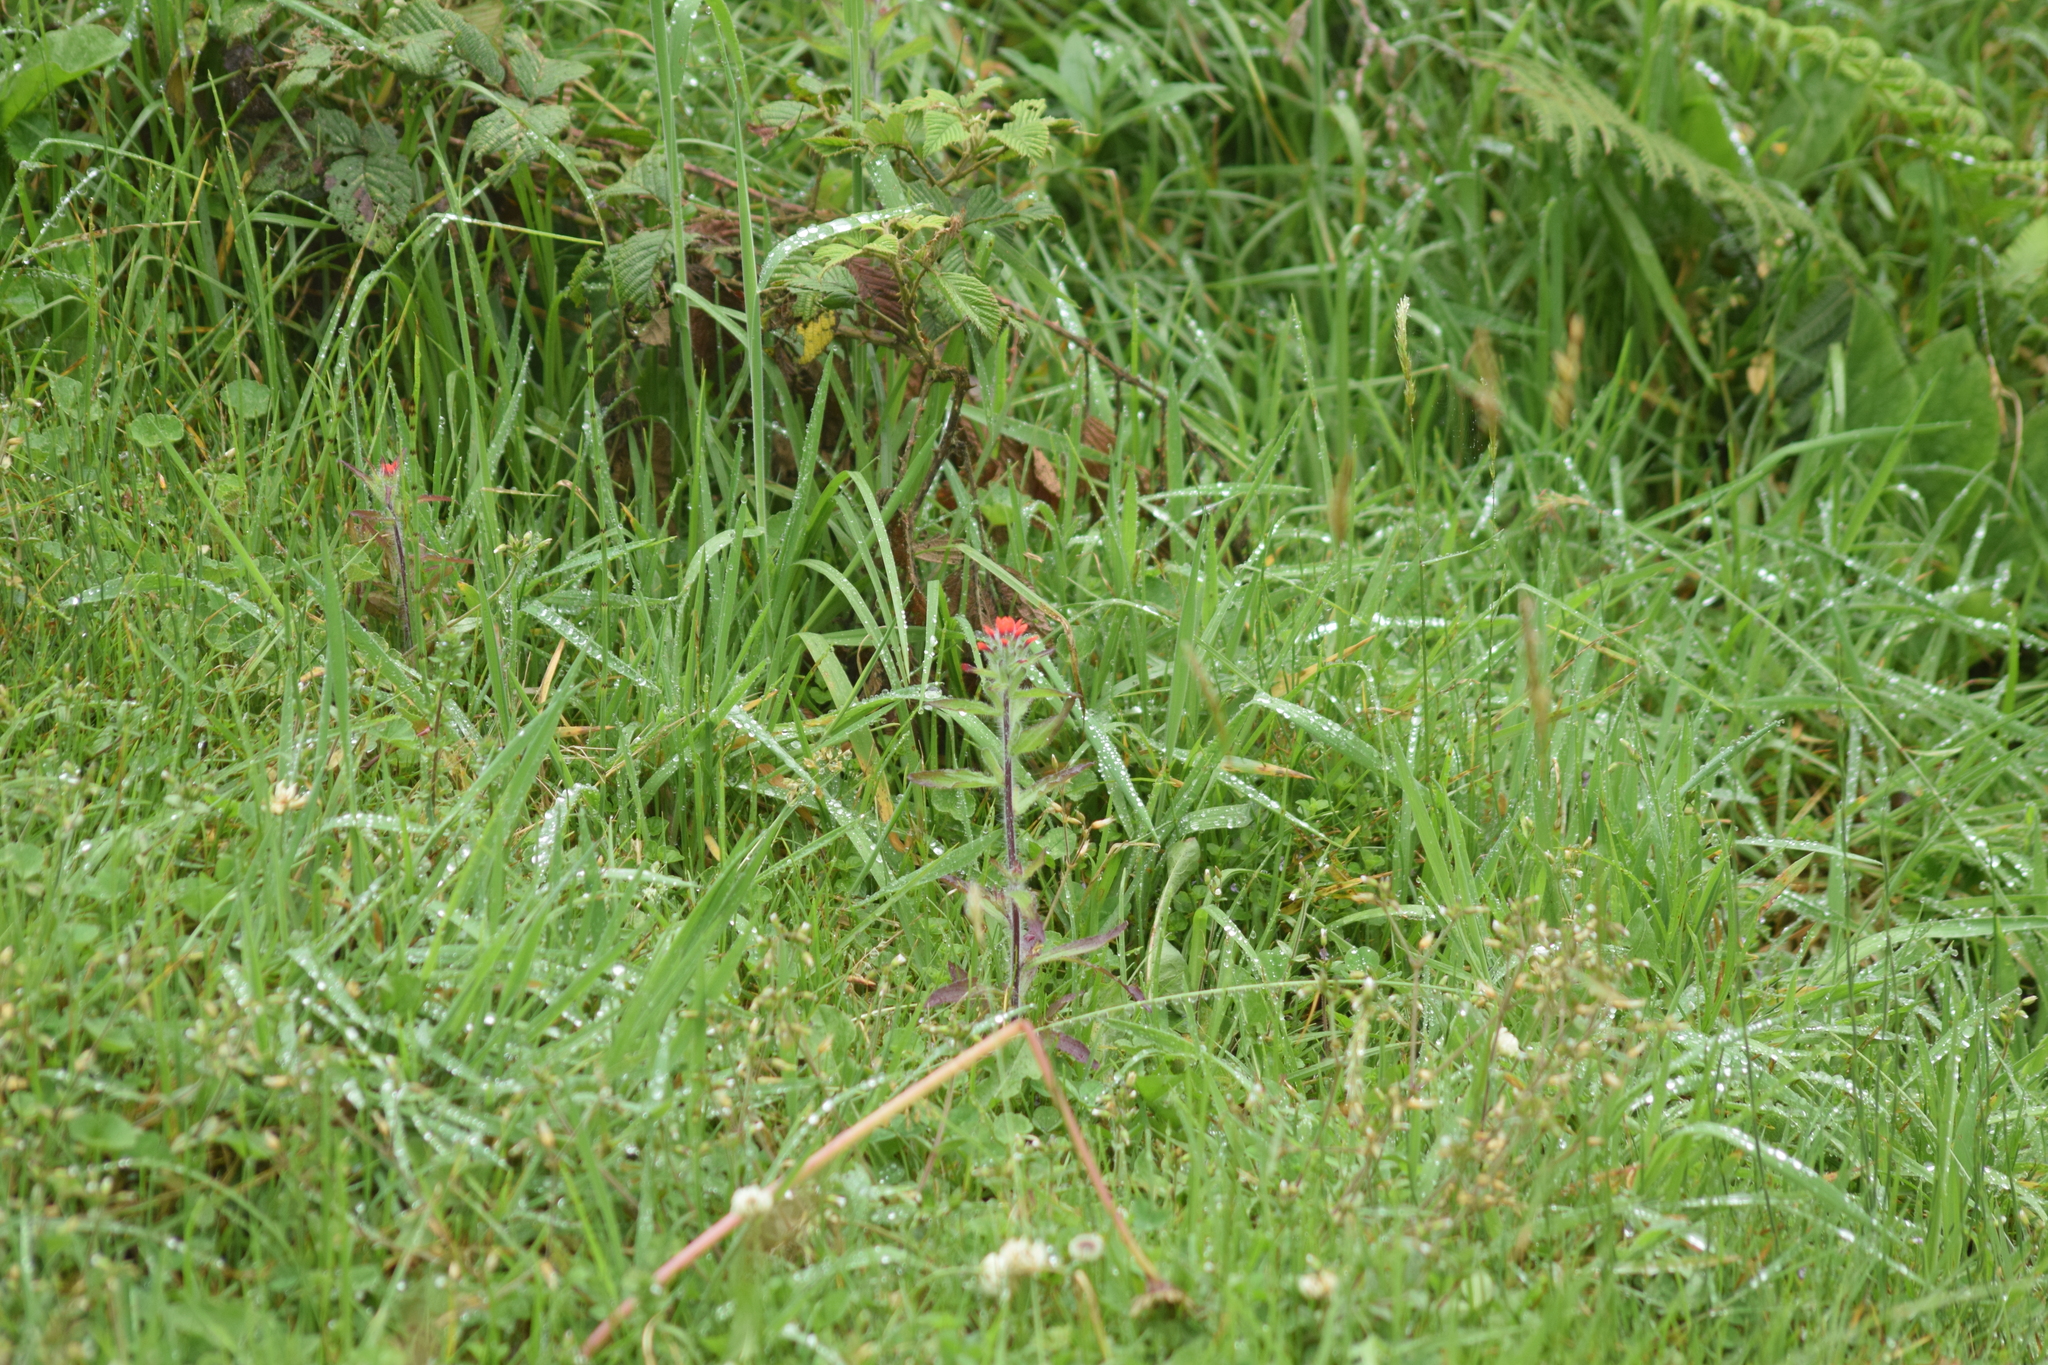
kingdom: Plantae
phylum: Tracheophyta
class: Magnoliopsida
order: Lamiales
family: Orobanchaceae
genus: Castilleja
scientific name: Castilleja arvensis
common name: Indian paintbrush
